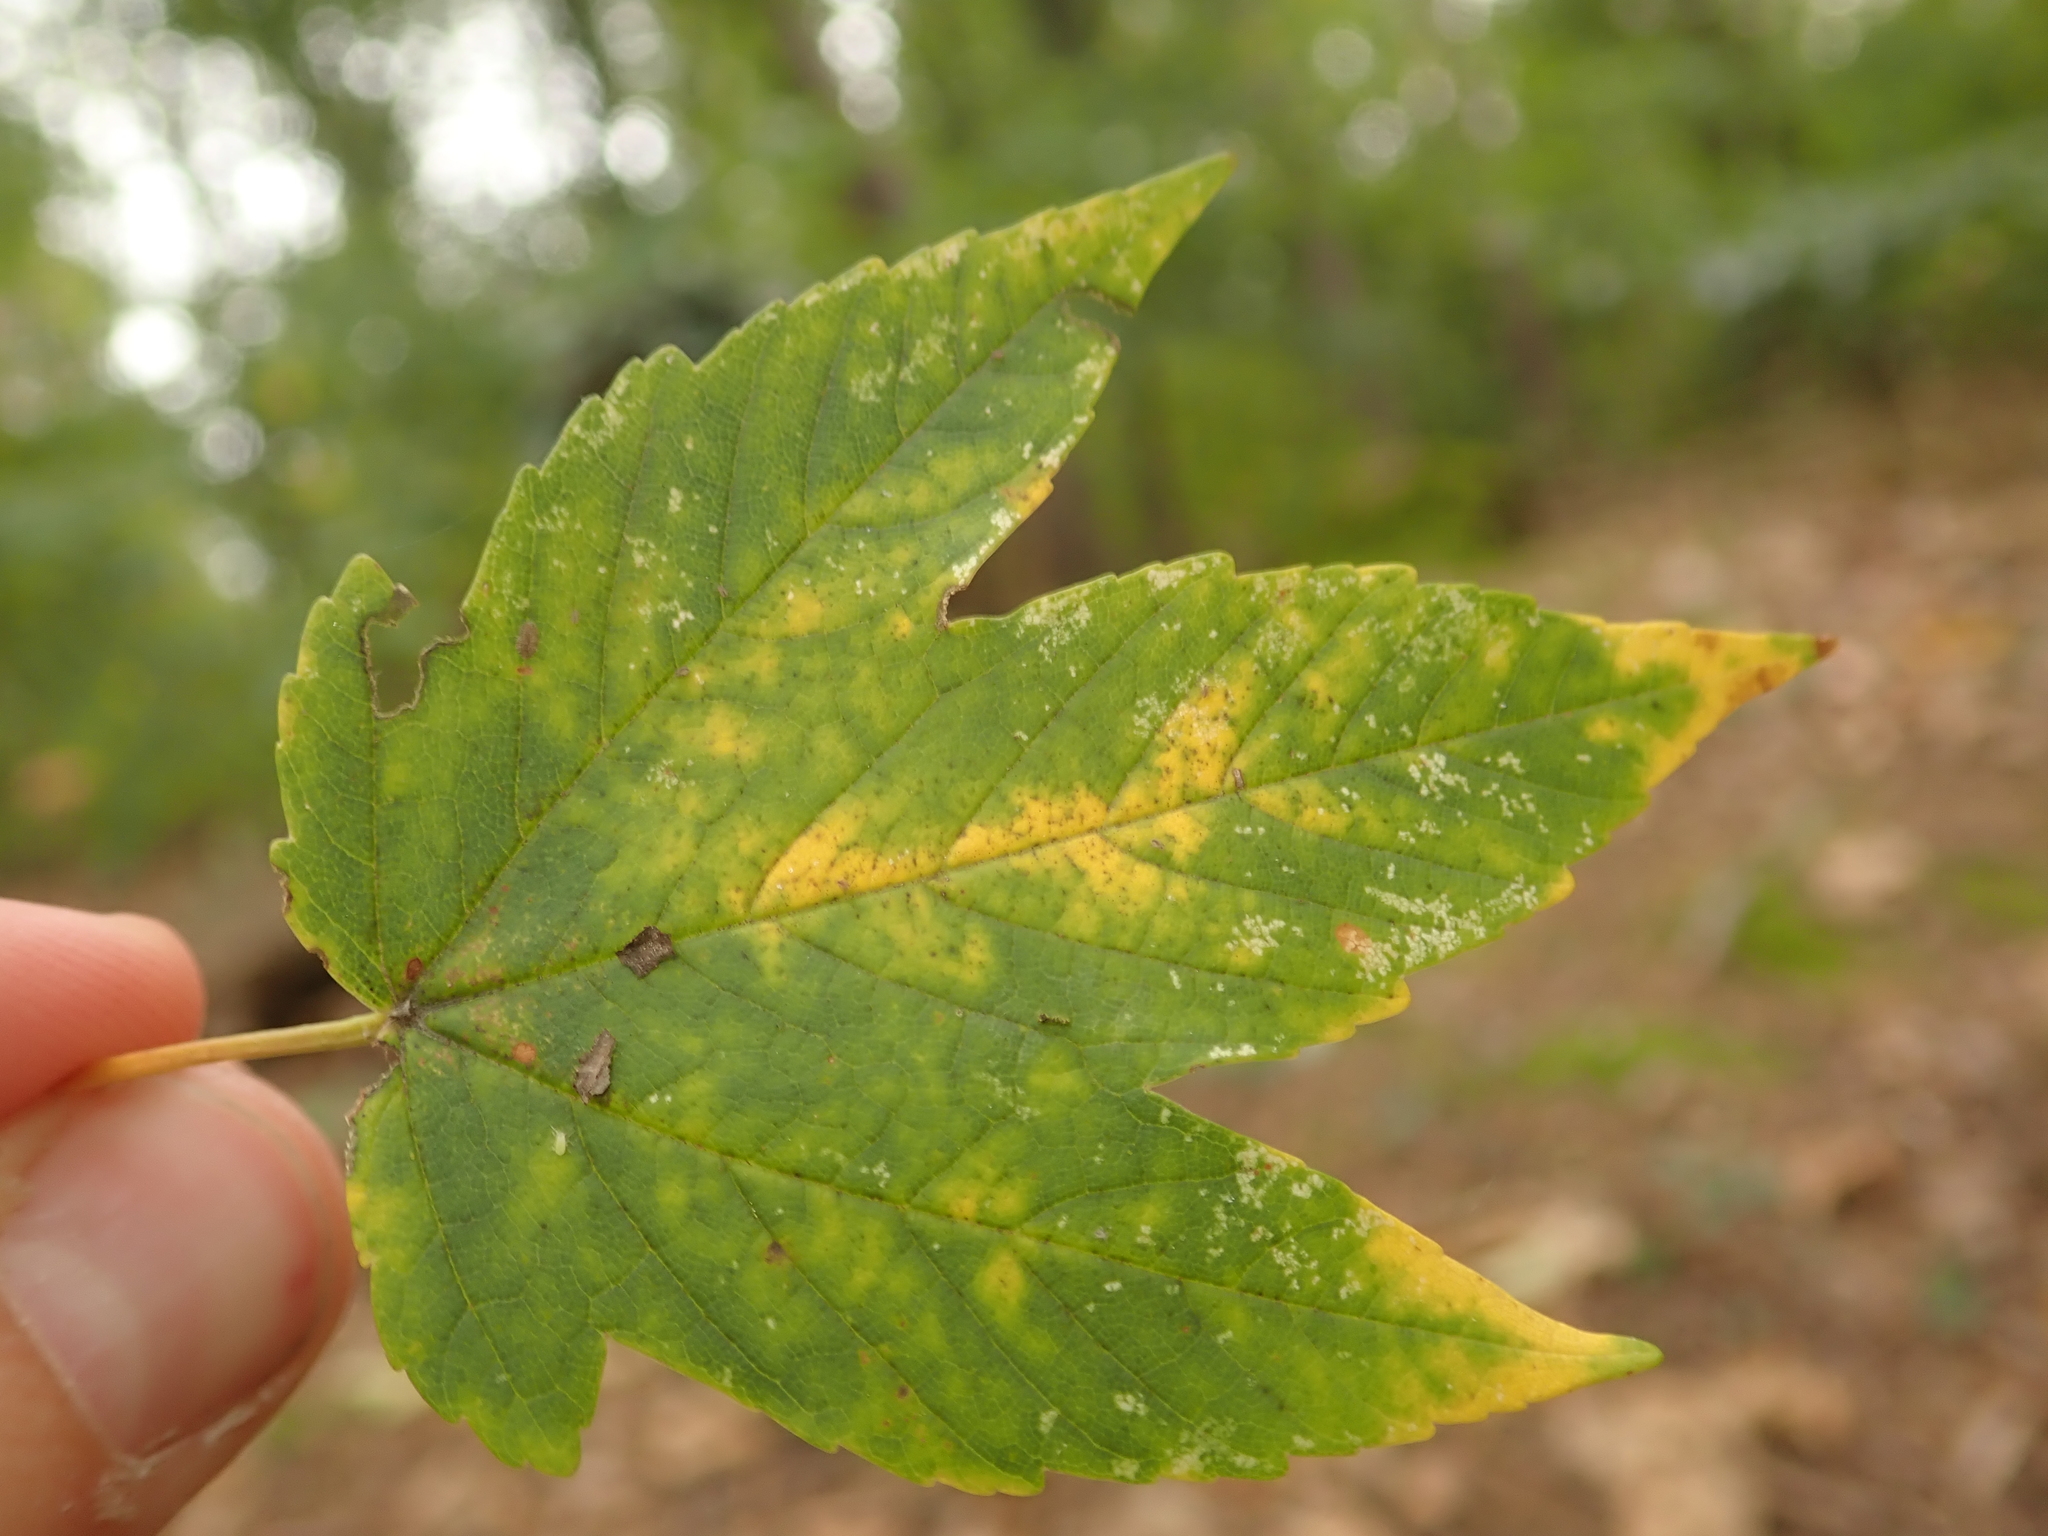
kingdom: Plantae
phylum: Tracheophyta
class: Magnoliopsida
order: Sapindales
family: Sapindaceae
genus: Acer
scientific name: Acer pseudoplatanus
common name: Sycamore
